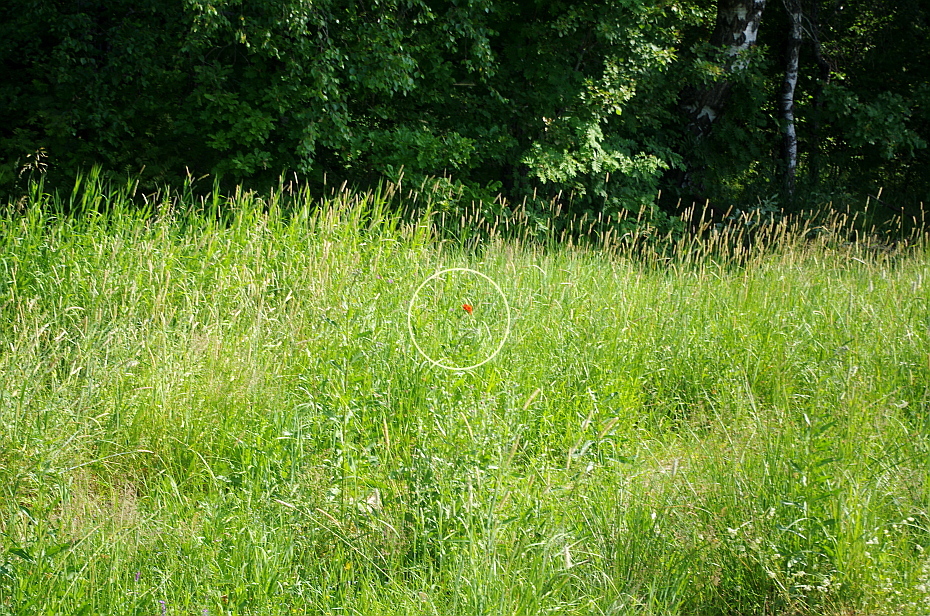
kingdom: Plantae
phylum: Tracheophyta
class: Magnoliopsida
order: Caryophyllales
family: Caryophyllaceae
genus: Silene
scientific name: Silene chalcedonica
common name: Maltese-cross
